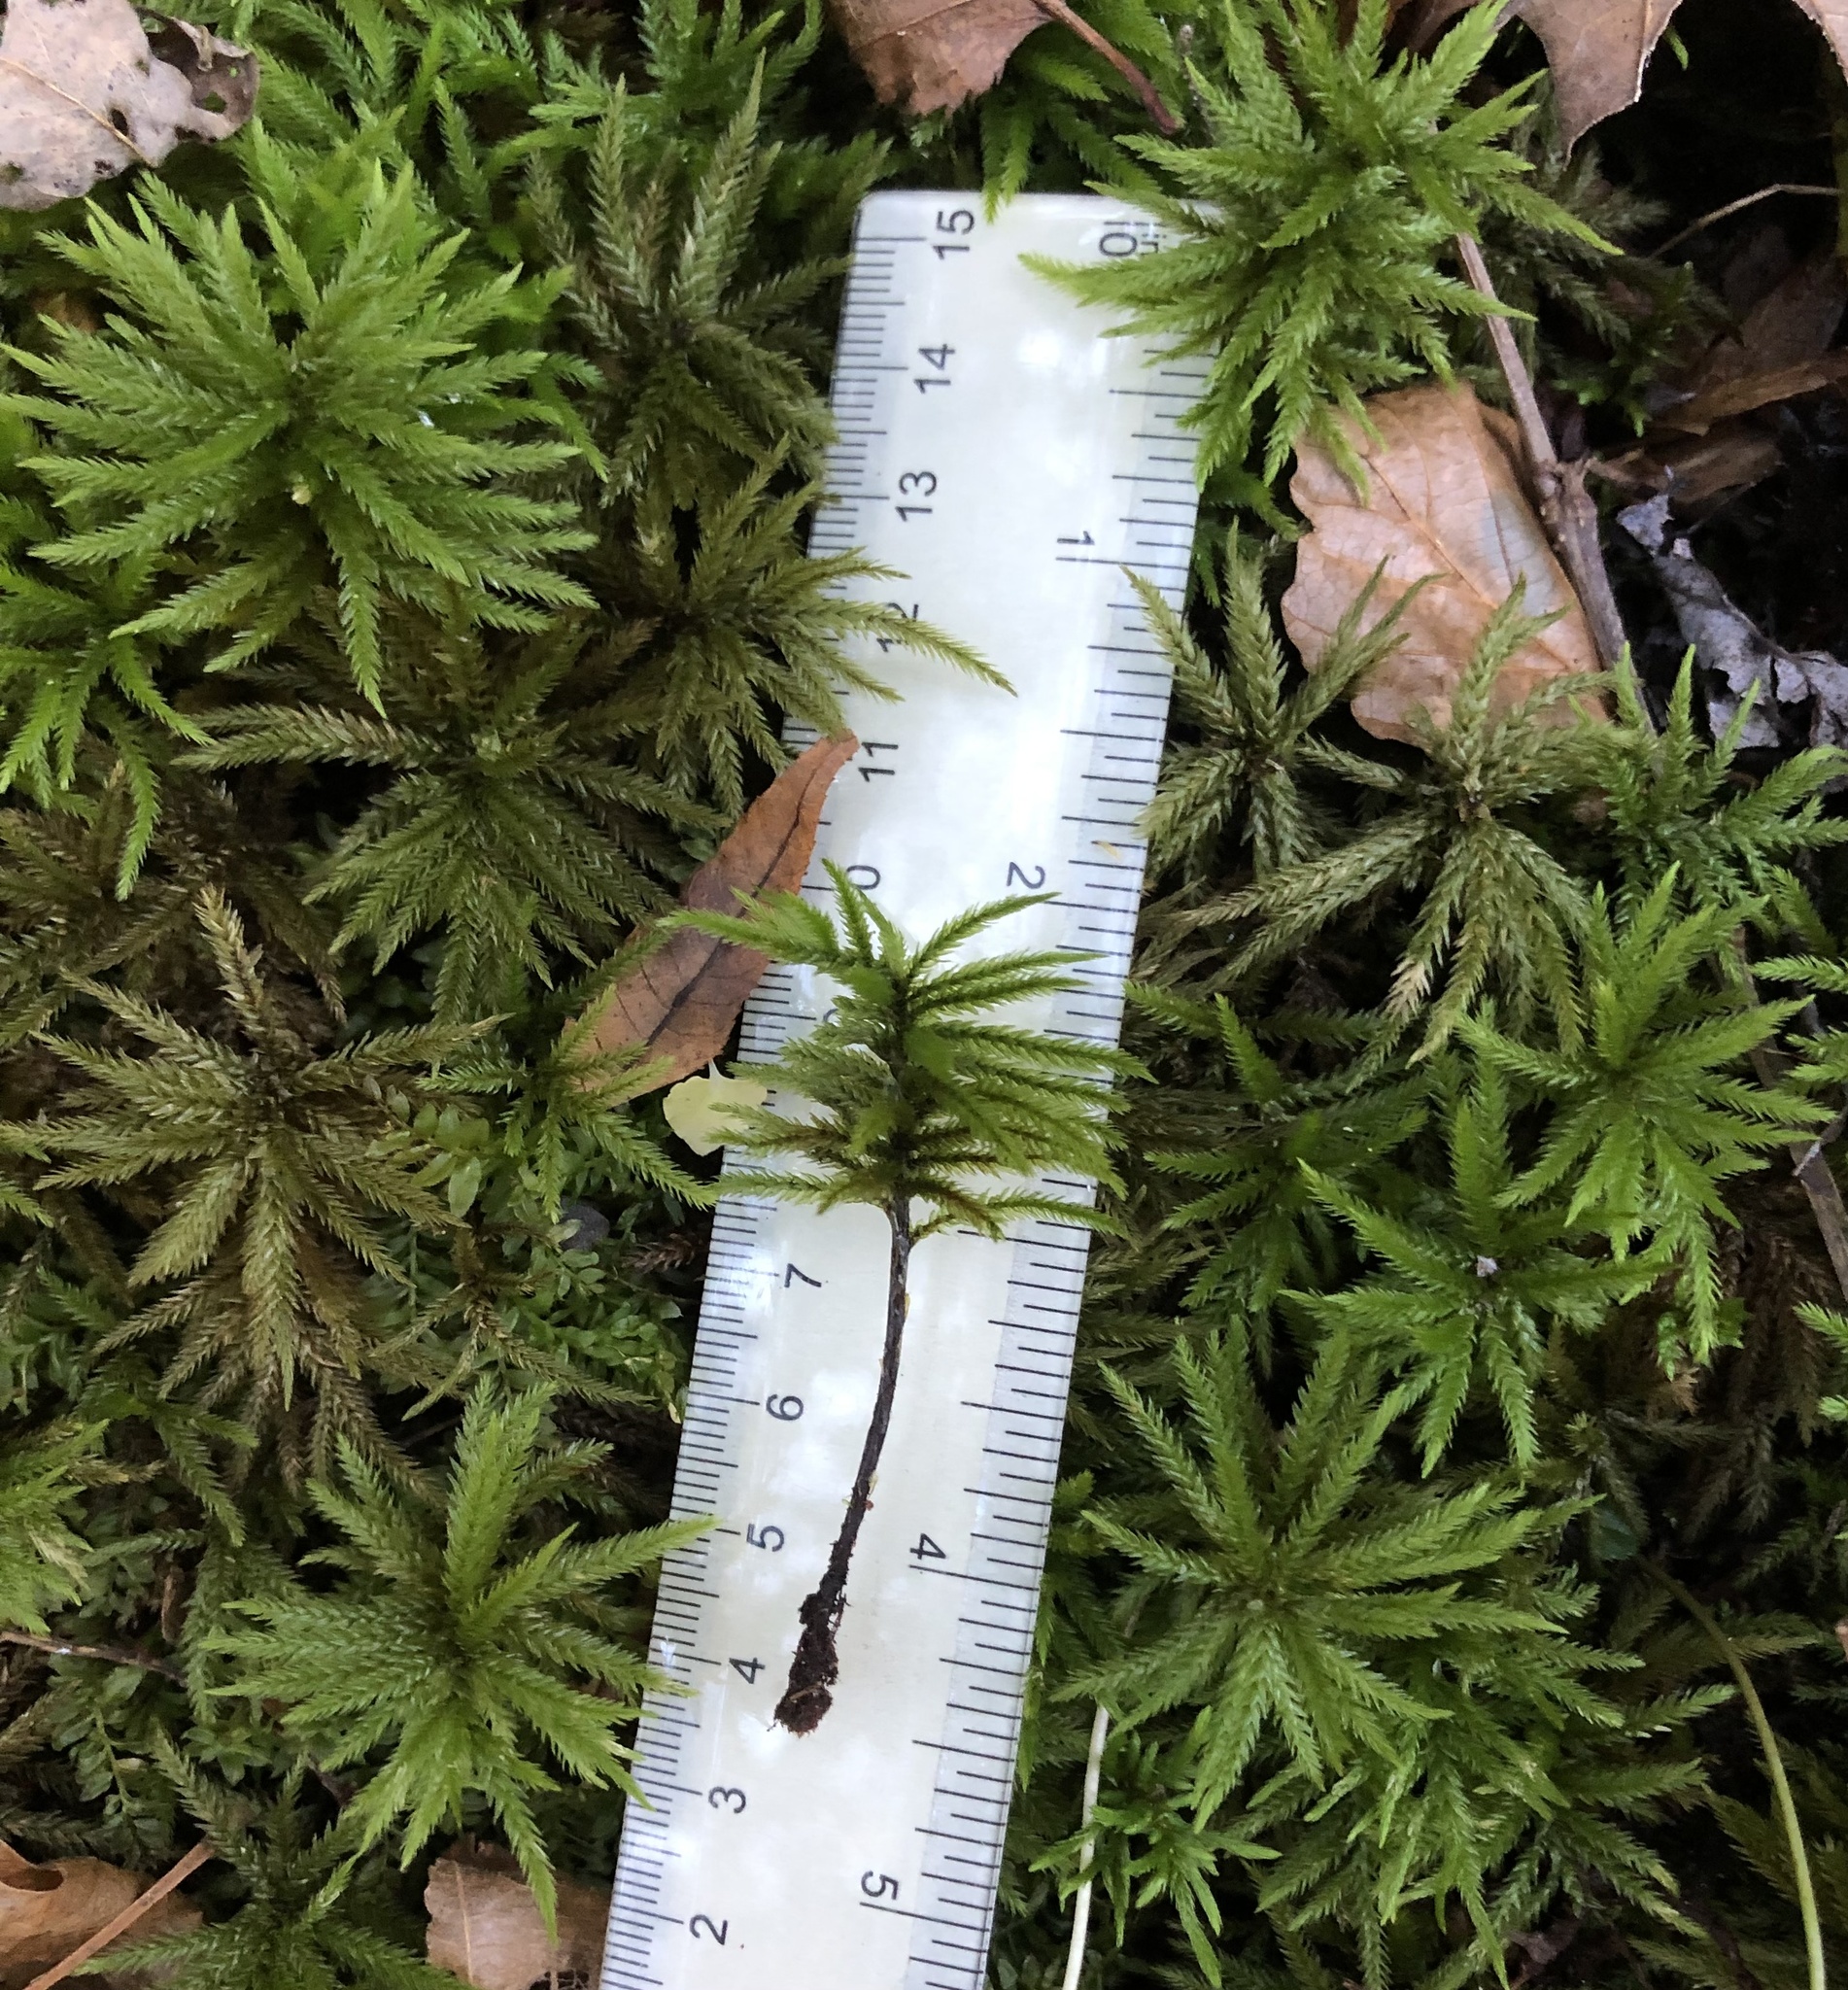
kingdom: Plantae
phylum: Bryophyta
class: Bryopsida
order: Hypnales
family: Climaciaceae
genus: Climacium
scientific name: Climacium americanum
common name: American tree moss
